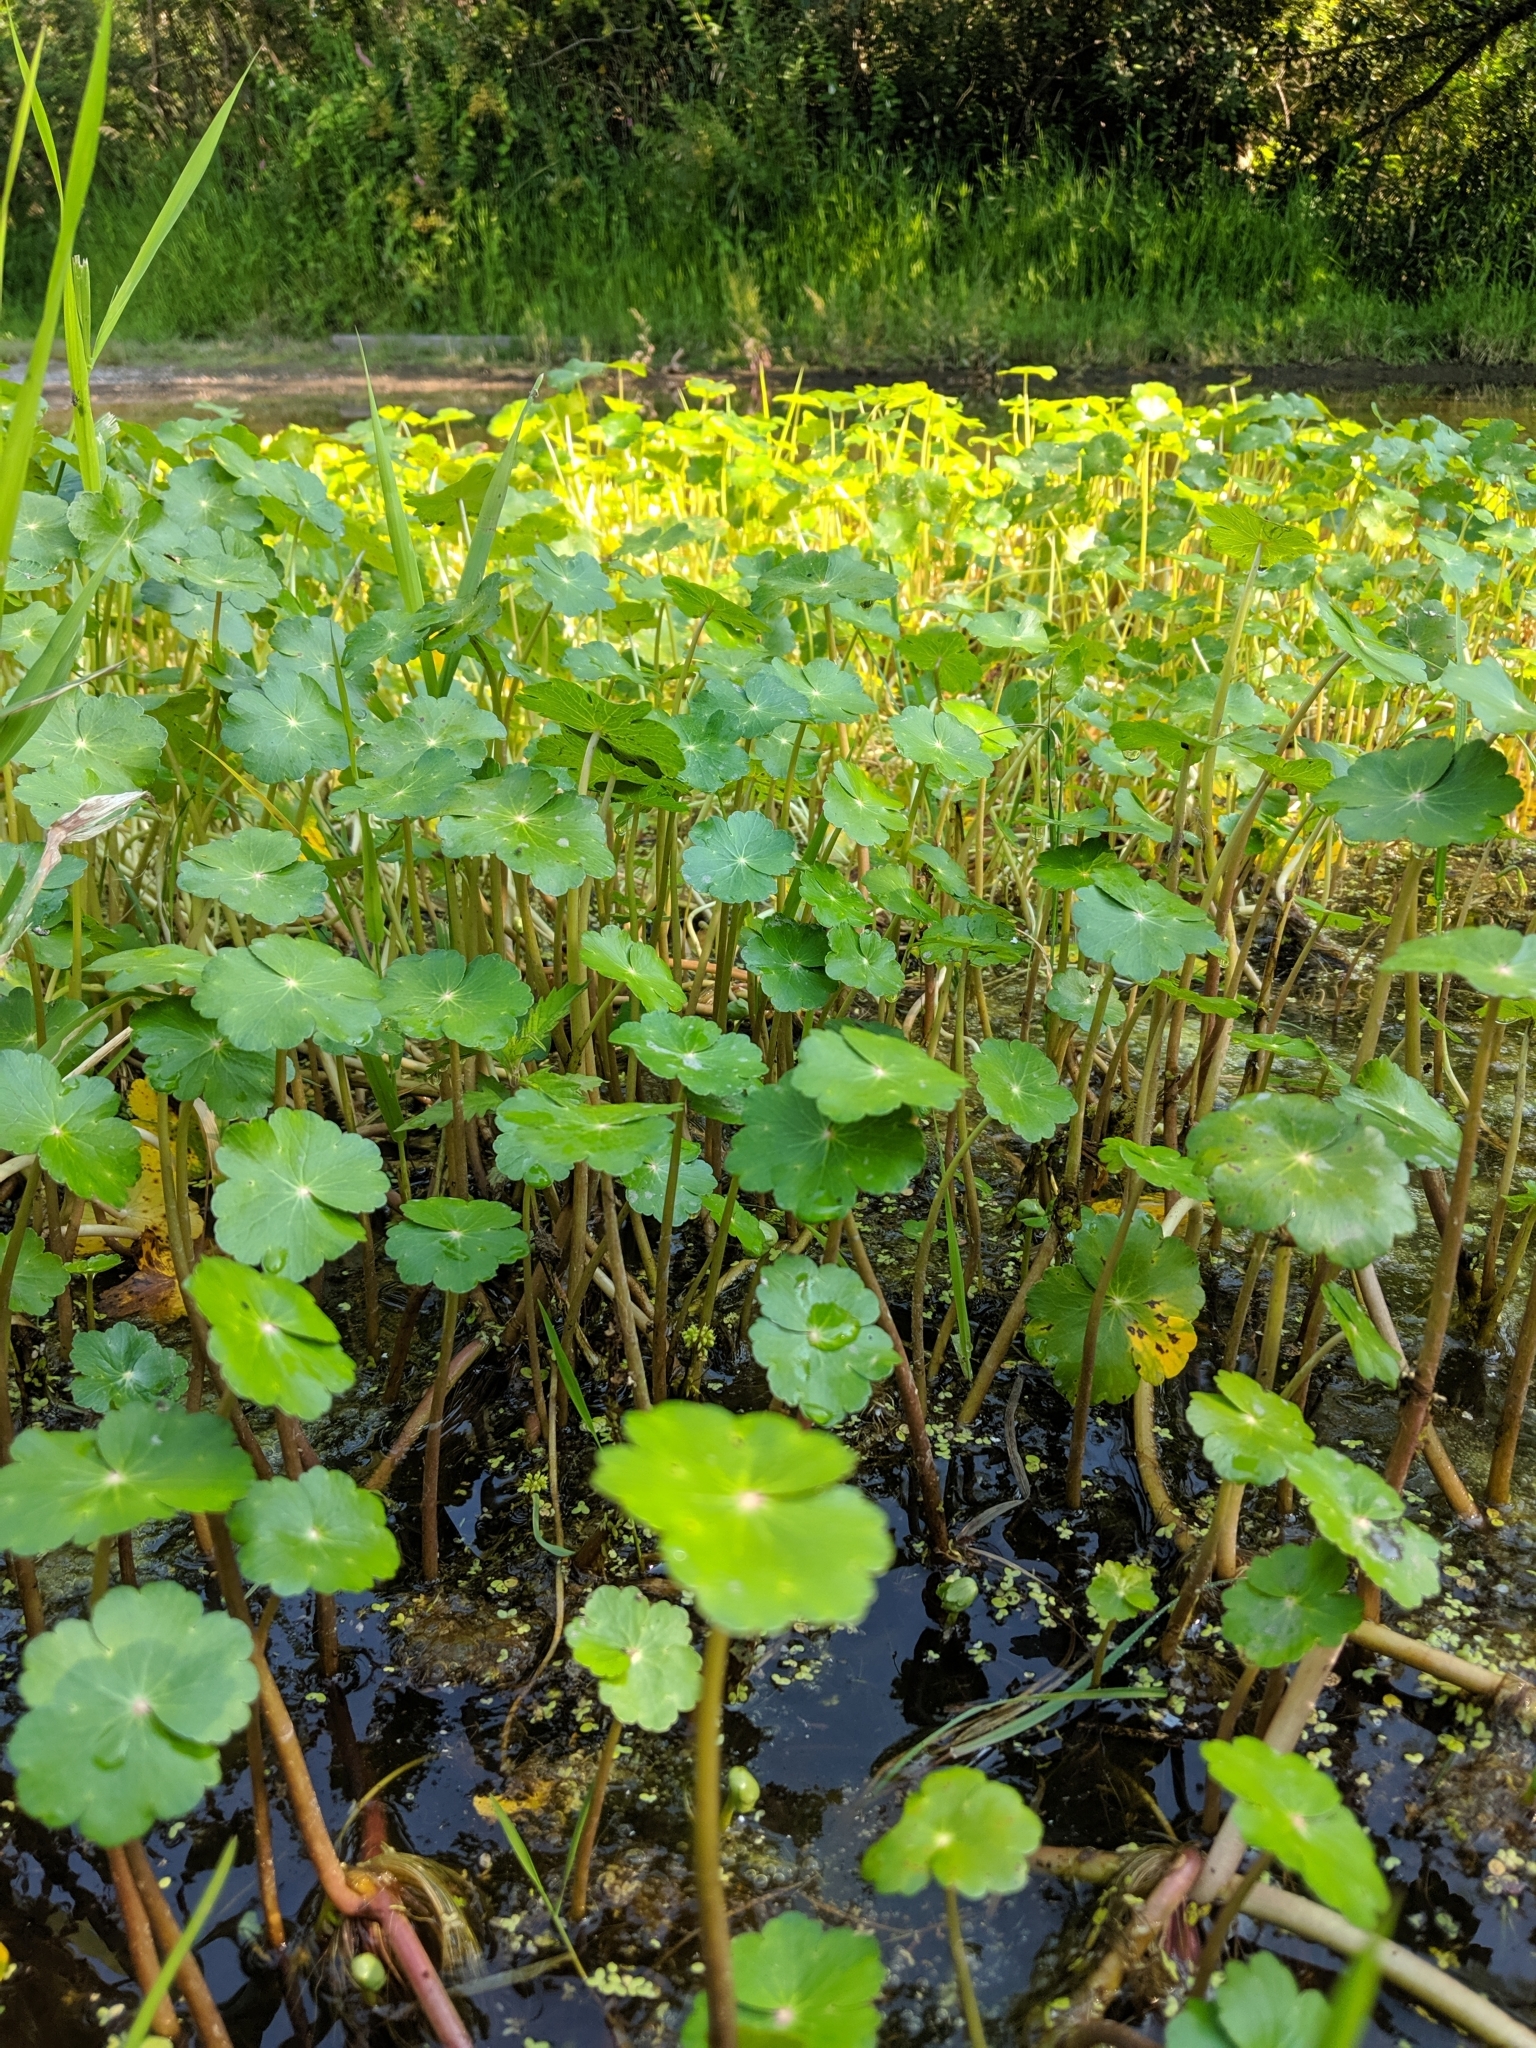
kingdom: Plantae
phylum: Tracheophyta
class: Magnoliopsida
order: Apiales
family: Araliaceae
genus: Hydrocotyle
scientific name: Hydrocotyle ranunculoides
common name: Floating pennywort
